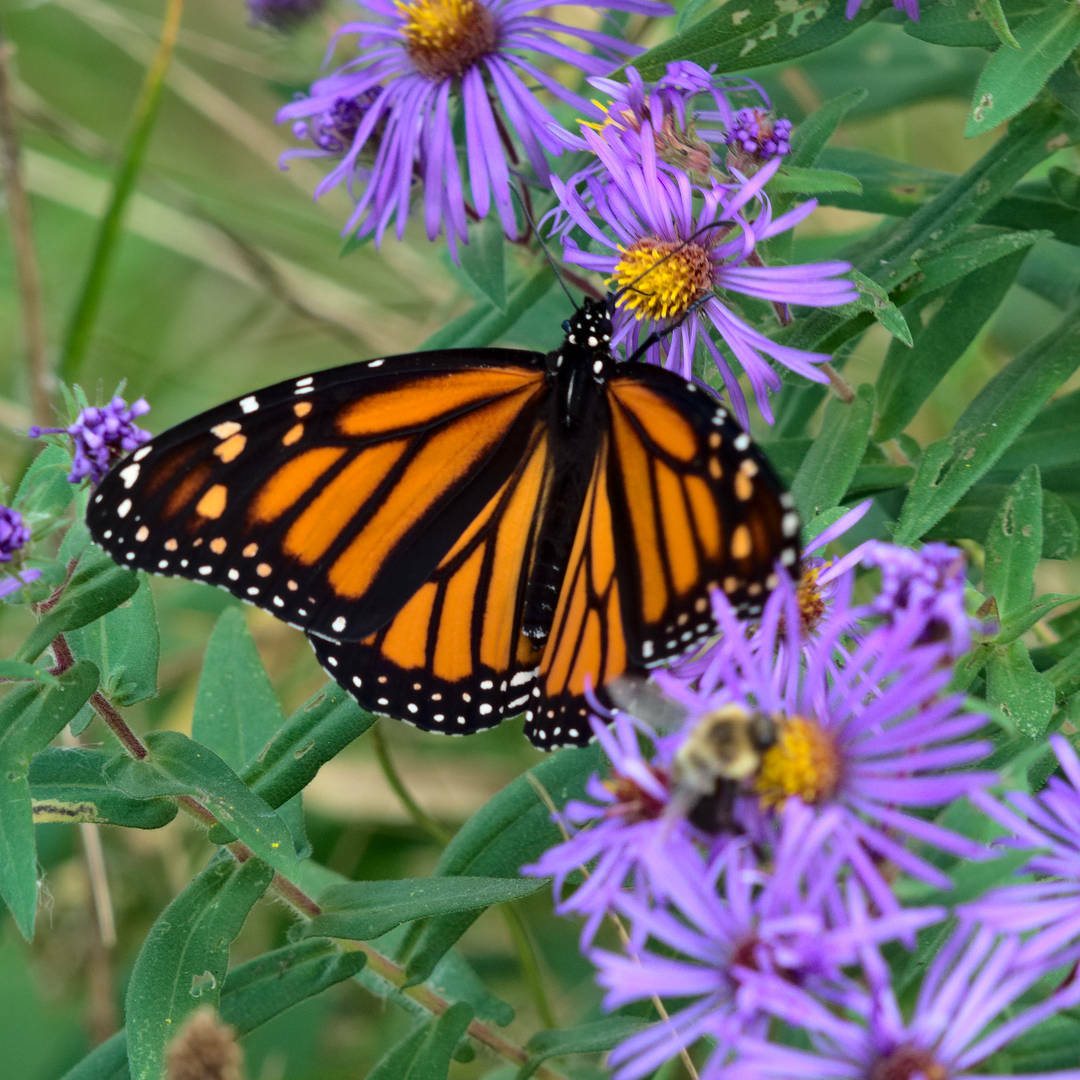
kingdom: Animalia
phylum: Arthropoda
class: Insecta
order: Lepidoptera
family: Nymphalidae
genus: Danaus
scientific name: Danaus plexippus
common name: Monarch
